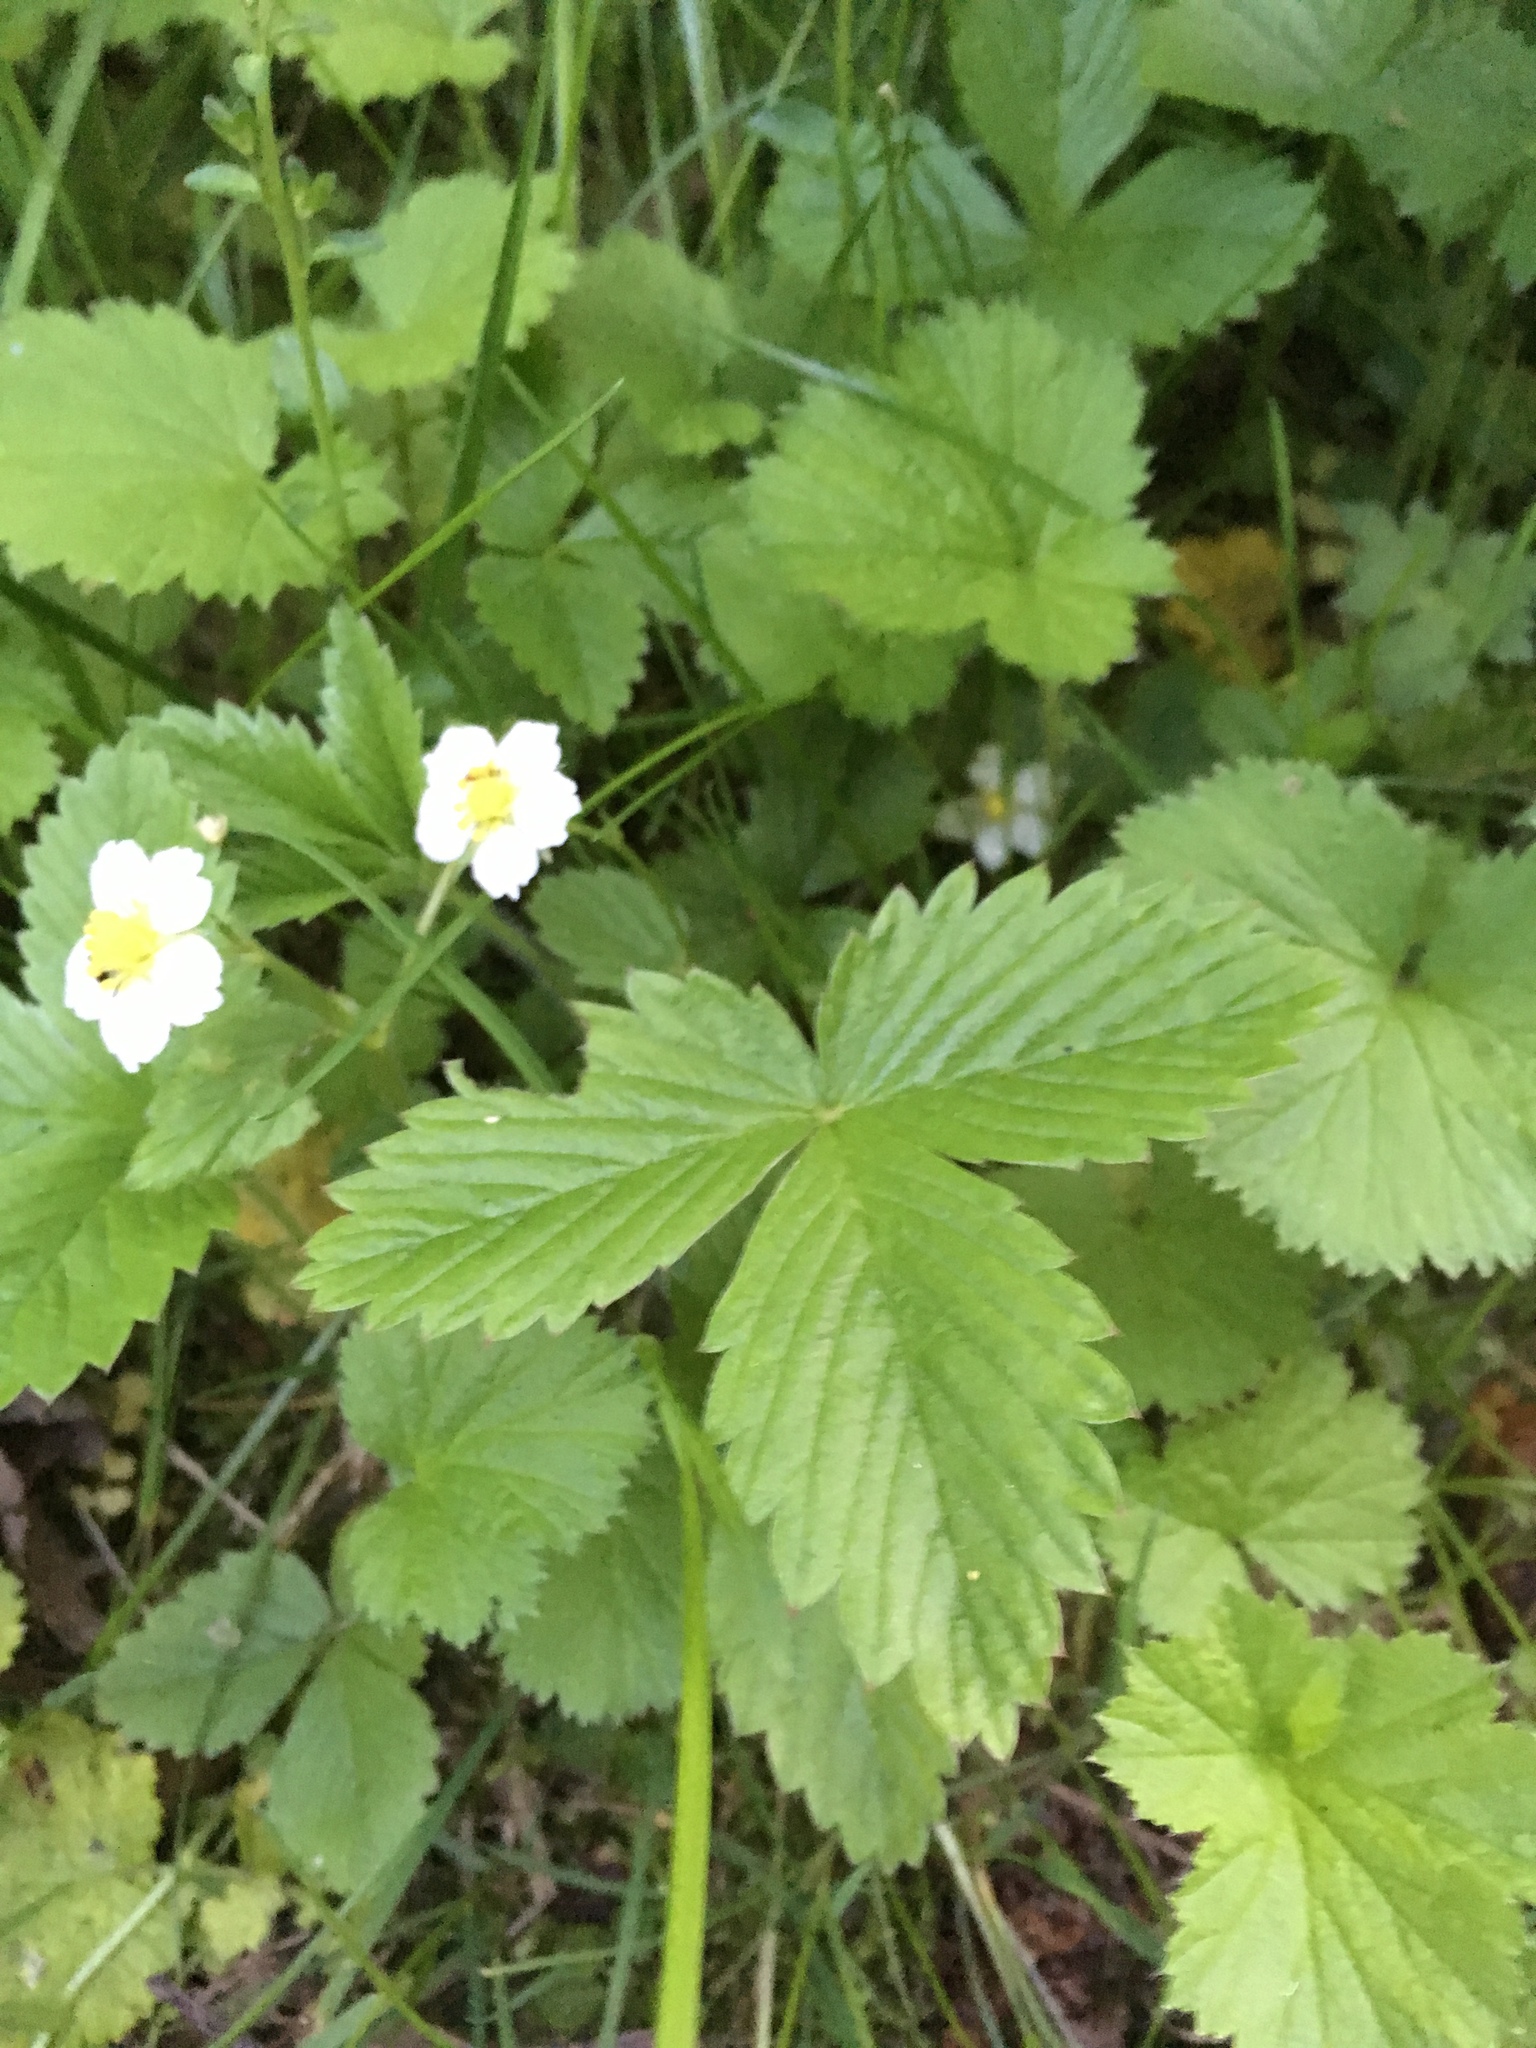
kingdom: Plantae
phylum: Tracheophyta
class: Magnoliopsida
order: Rosales
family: Rosaceae
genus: Fragaria
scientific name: Fragaria vesca
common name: Wild strawberry
